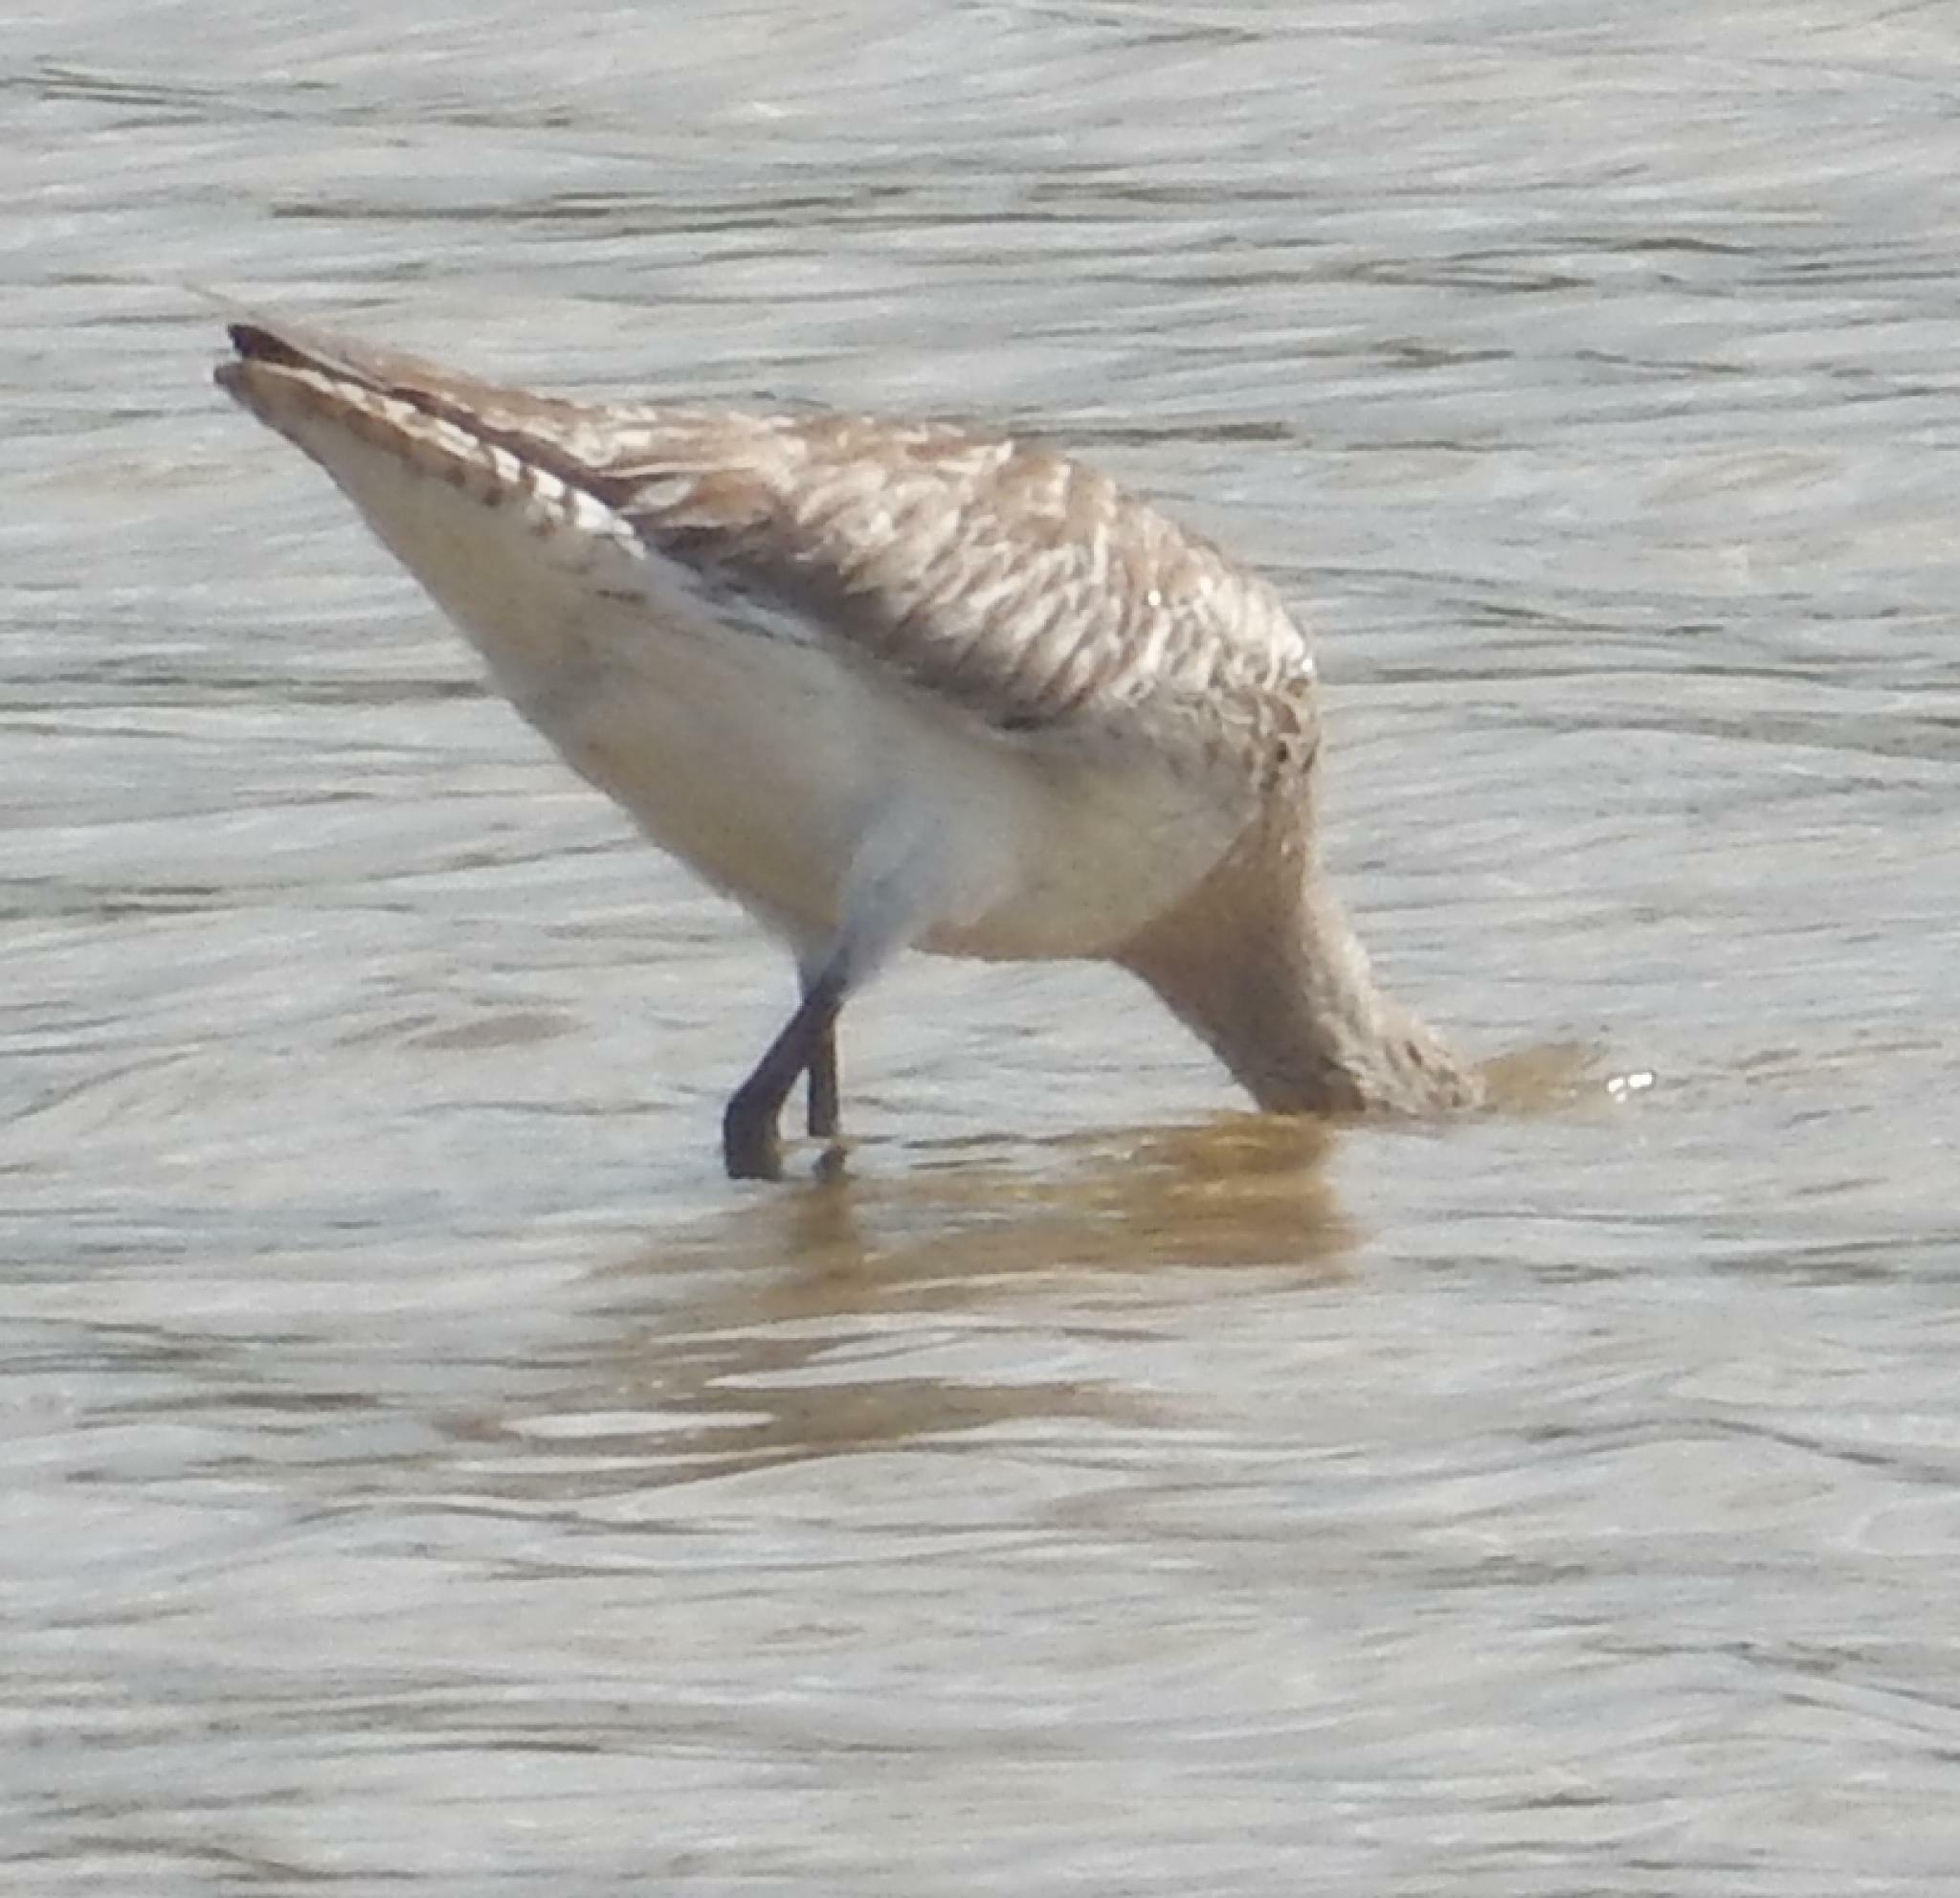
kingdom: Animalia
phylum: Chordata
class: Aves
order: Charadriiformes
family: Scolopacidae
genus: Limosa
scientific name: Limosa lapponica
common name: Bar-tailed godwit
